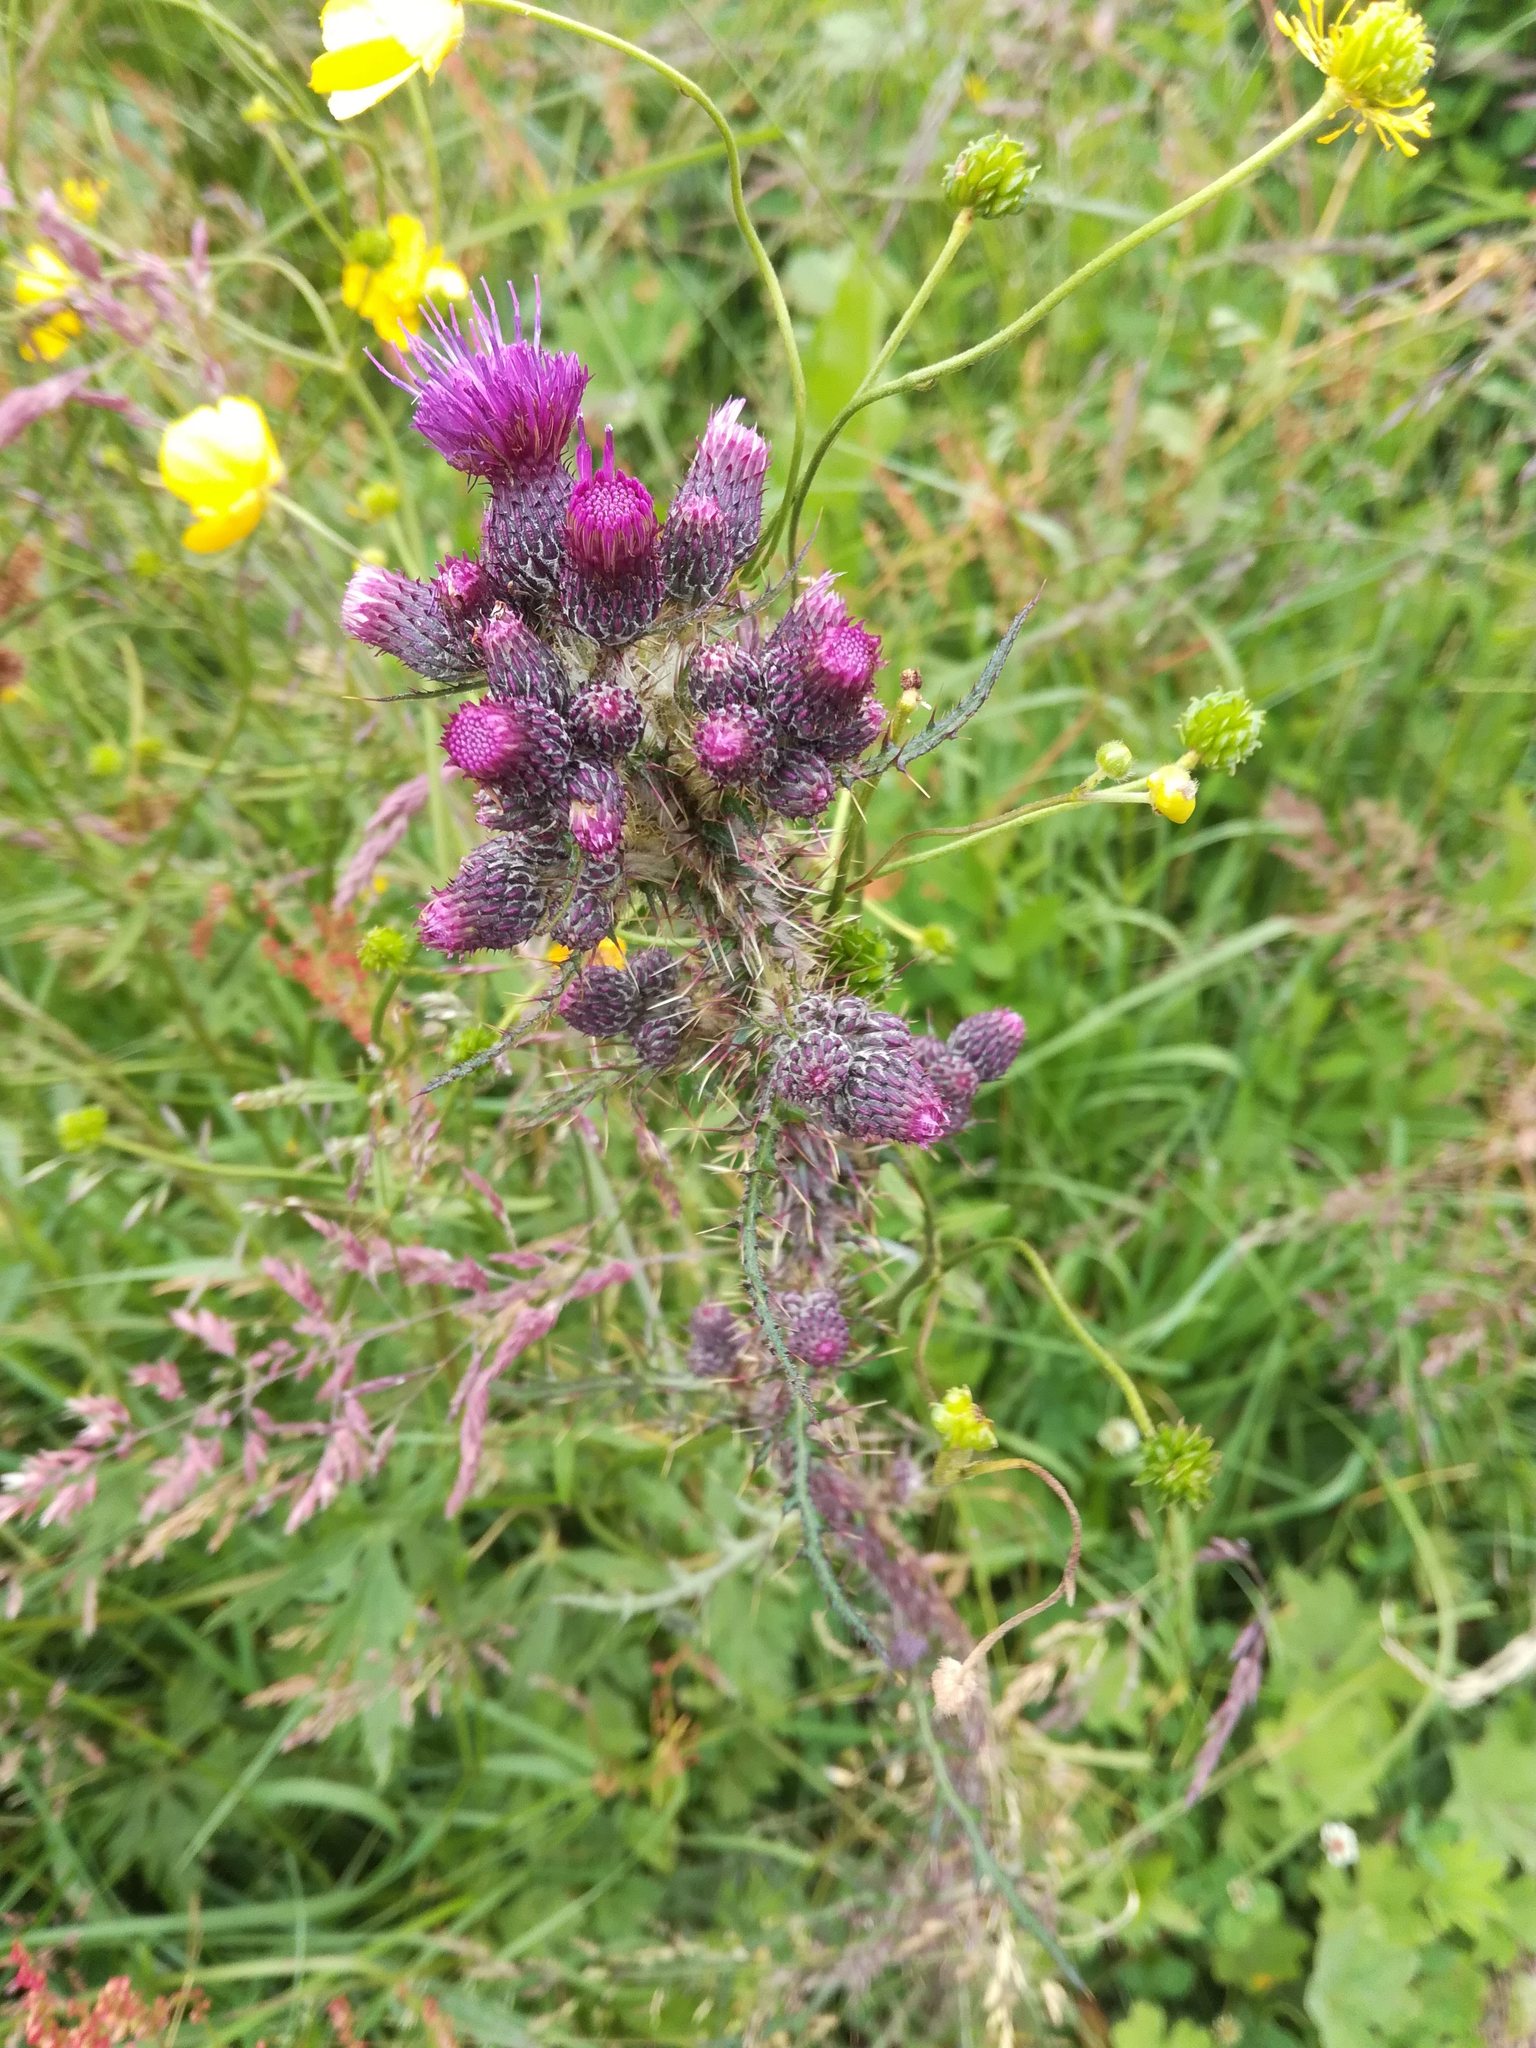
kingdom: Plantae
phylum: Tracheophyta
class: Magnoliopsida
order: Asterales
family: Asteraceae
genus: Cirsium
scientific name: Cirsium palustre
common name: Marsh thistle
